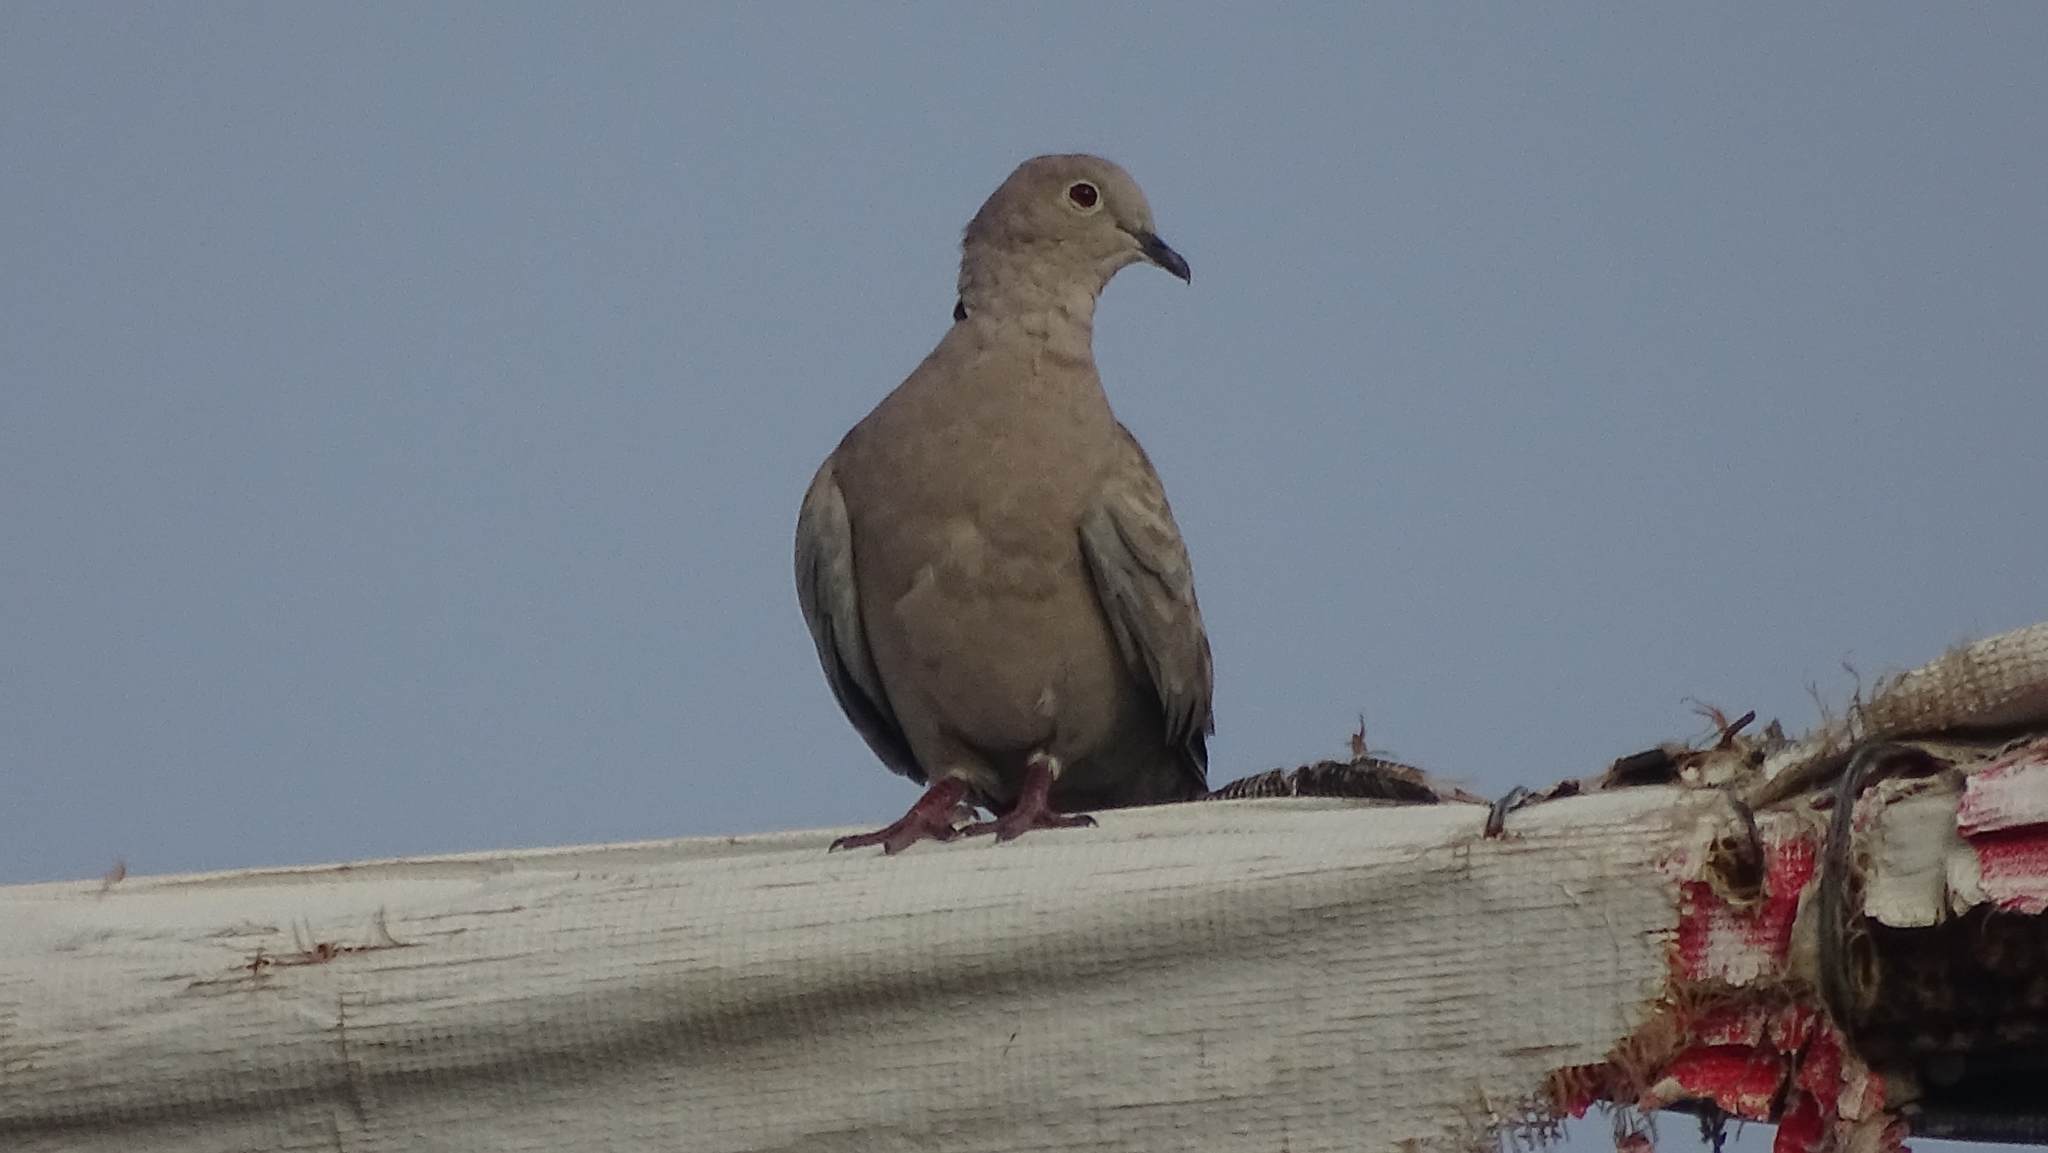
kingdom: Animalia
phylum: Chordata
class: Aves
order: Columbiformes
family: Columbidae
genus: Streptopelia
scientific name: Streptopelia decaocto
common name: Eurasian collared dove
